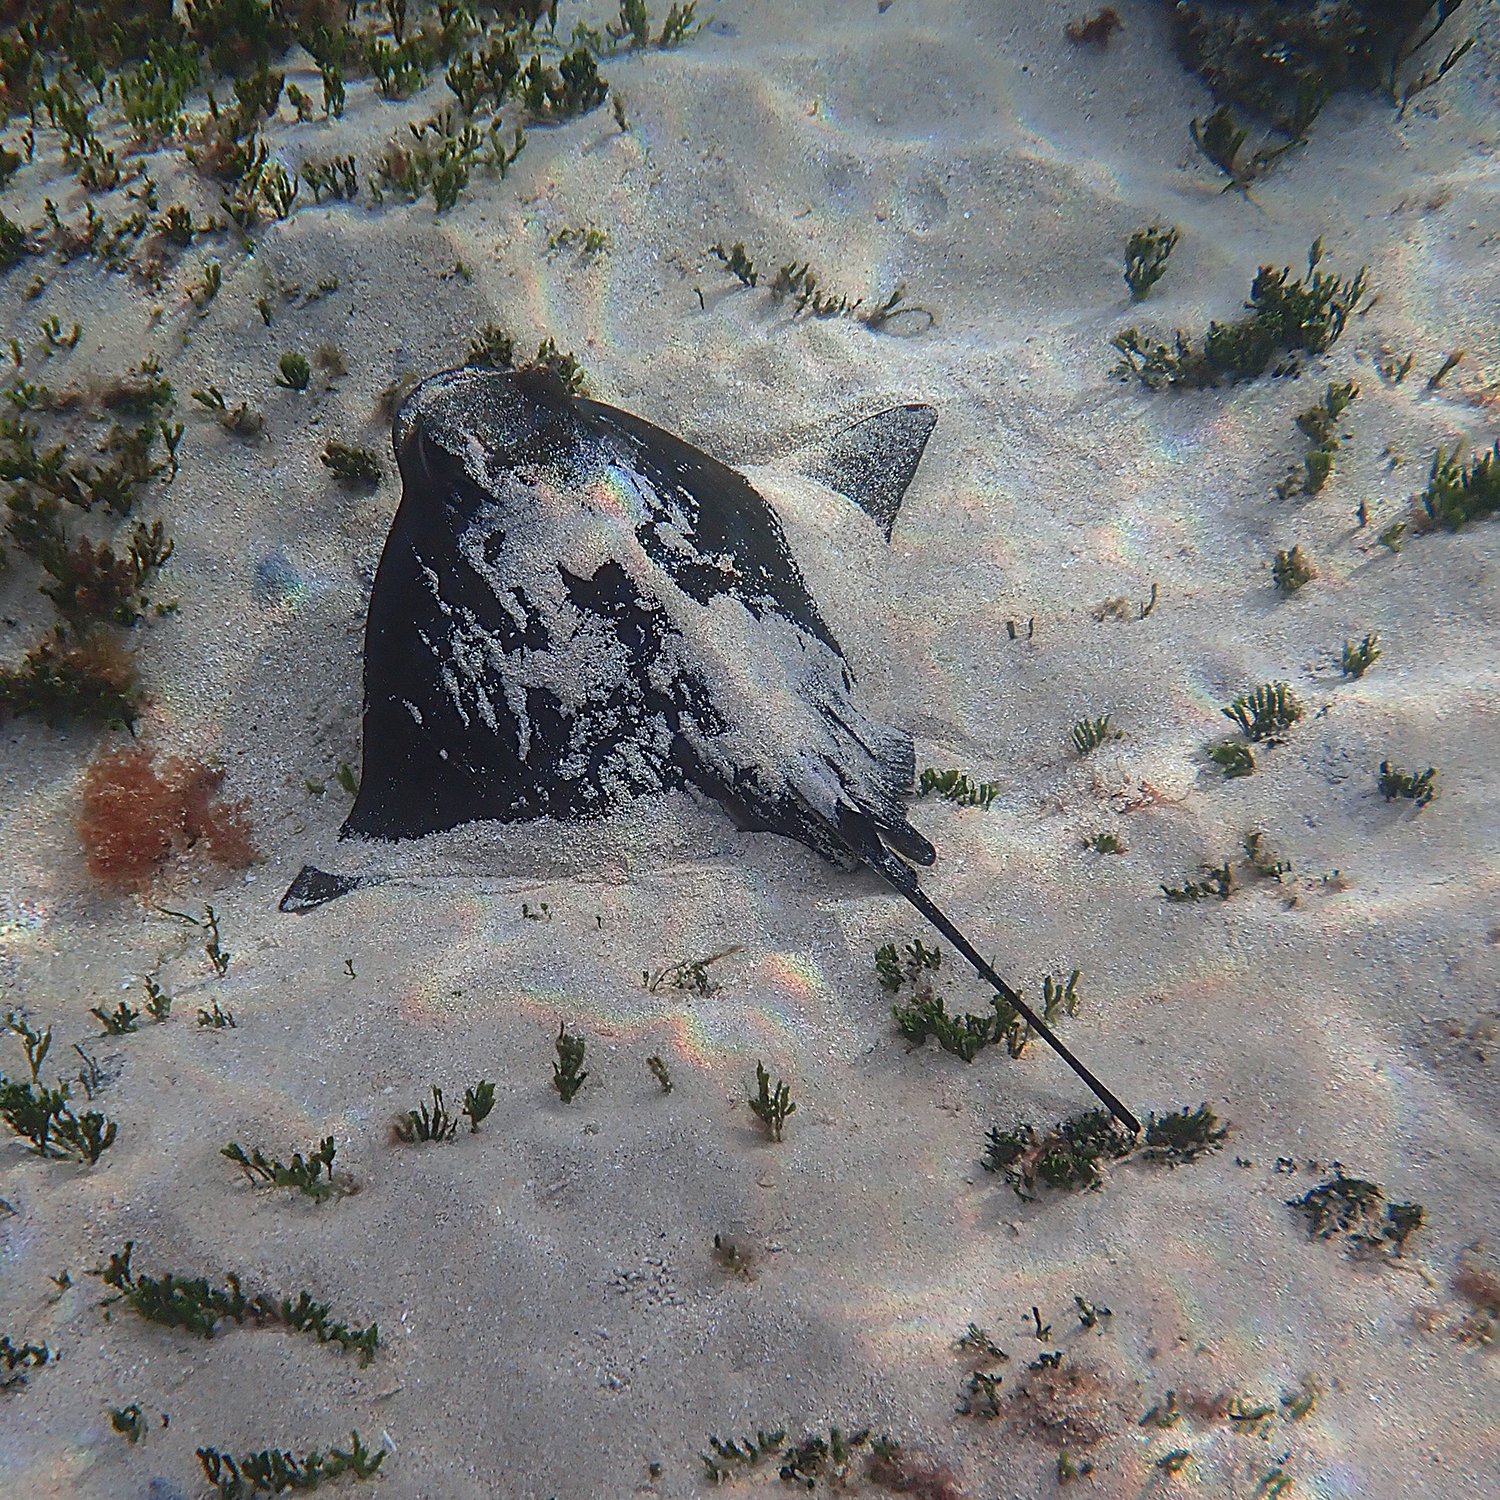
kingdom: Animalia
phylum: Chordata
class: Elasmobranchii
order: Myliobatiformes
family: Myliobatidae
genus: Myliobatis
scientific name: Myliobatis tenuicaudatus
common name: Eagle ray
